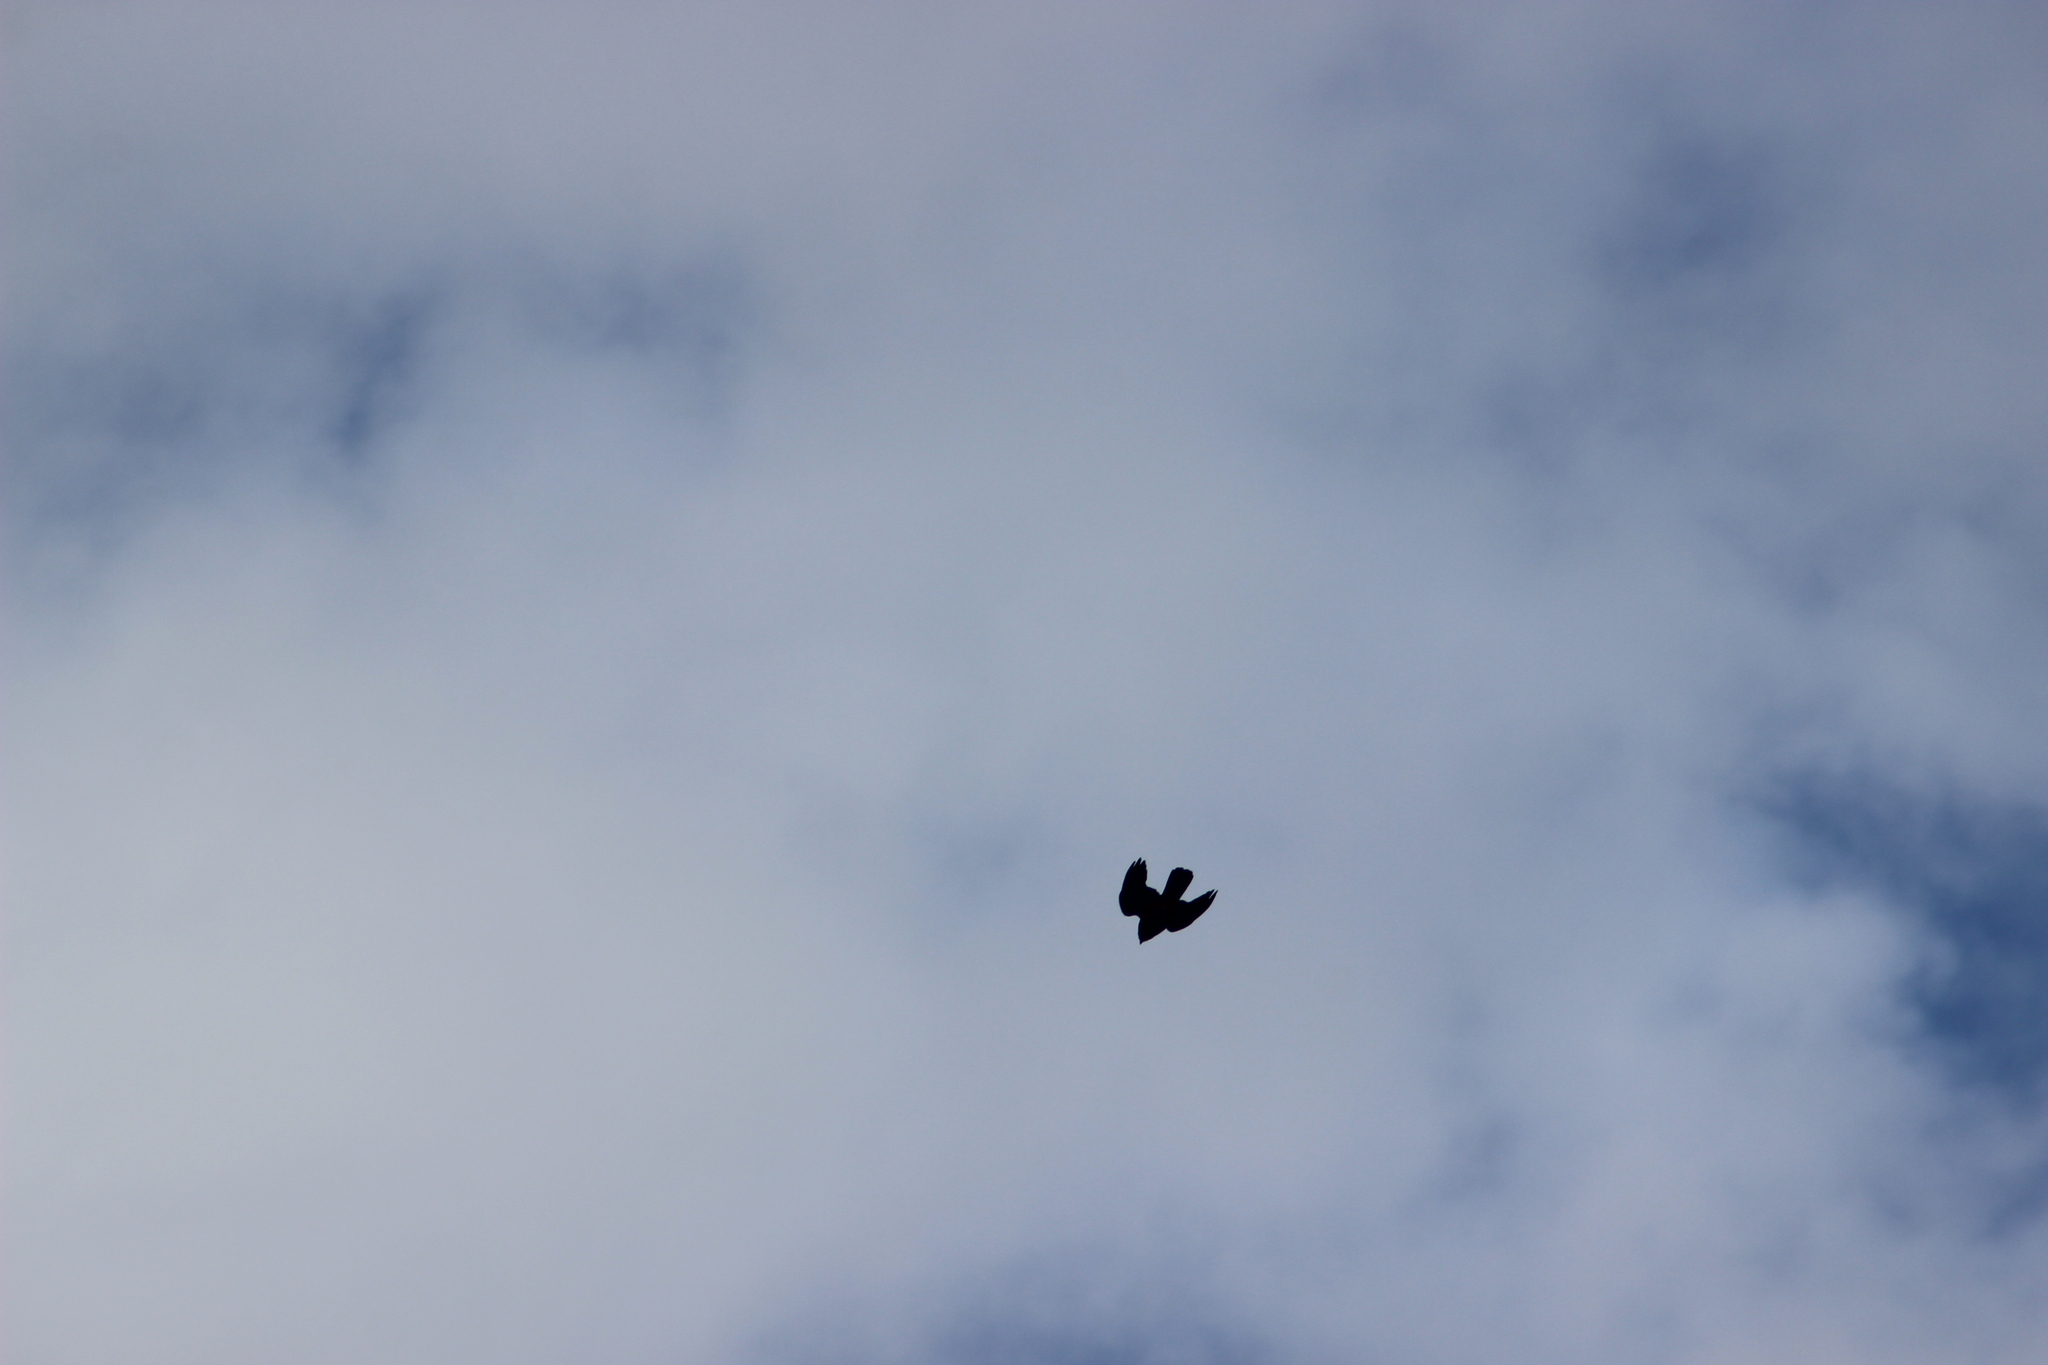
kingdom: Animalia
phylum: Chordata
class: Aves
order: Falconiformes
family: Falconidae
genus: Falco
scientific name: Falco novaeseelandiae
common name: New zealand falcon
